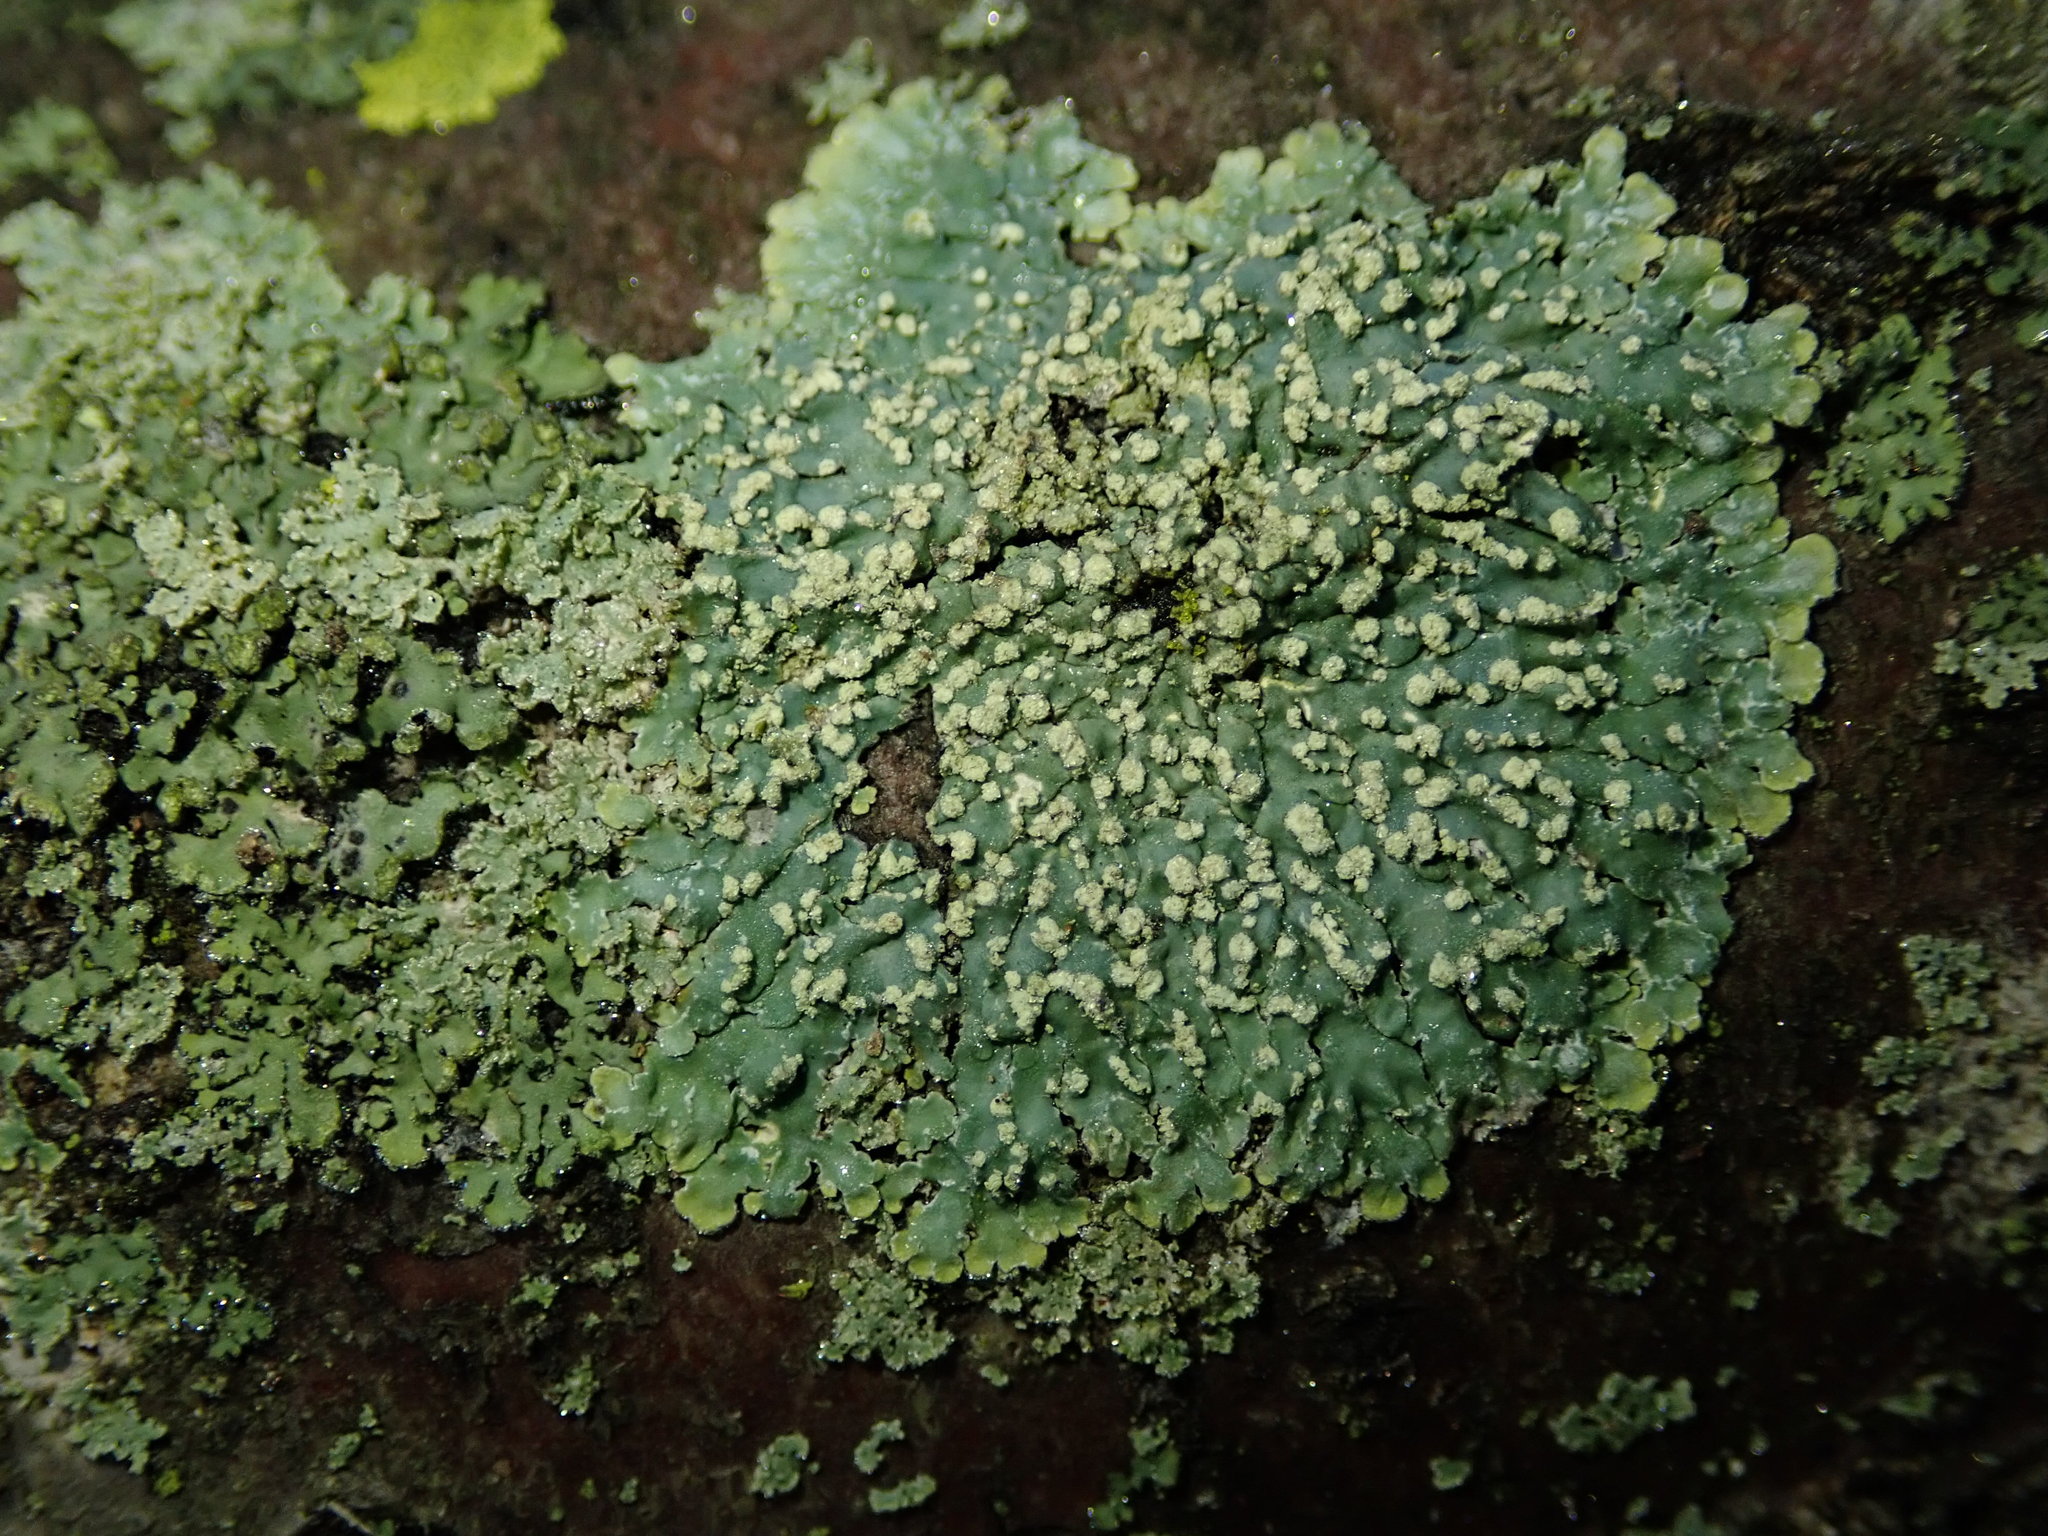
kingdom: Fungi
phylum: Ascomycota
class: Lecanoromycetes
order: Caliciales
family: Caliciaceae
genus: Pyxine
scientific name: Pyxine sorediata
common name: Mustard lichen
